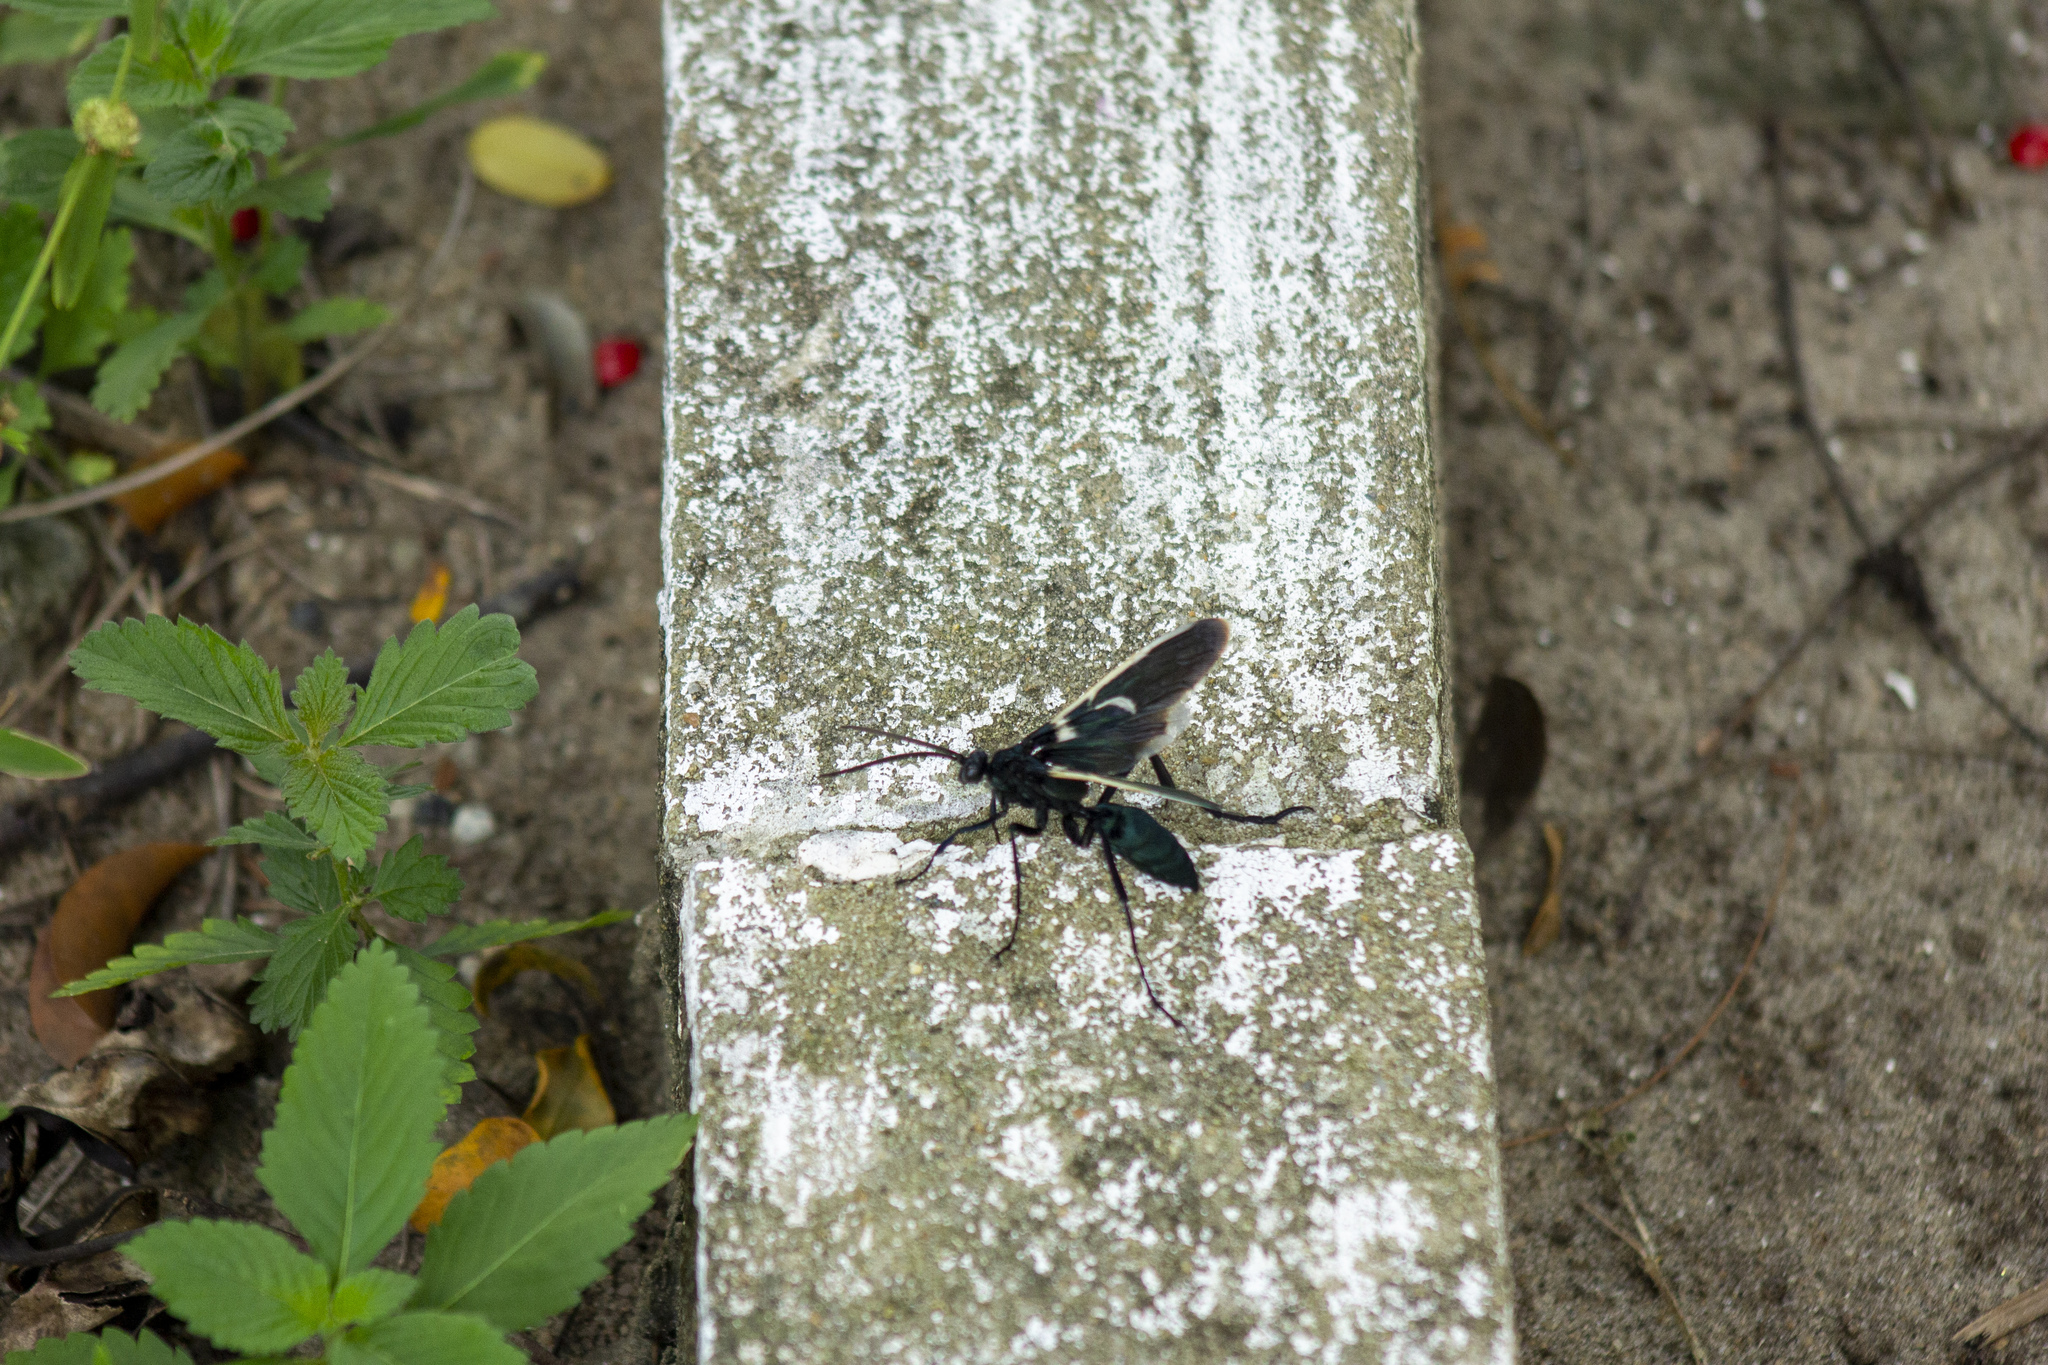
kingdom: Animalia
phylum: Arthropoda
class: Insecta
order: Hymenoptera
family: Pompilidae
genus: Pepsis
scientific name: Pepsis decorata
